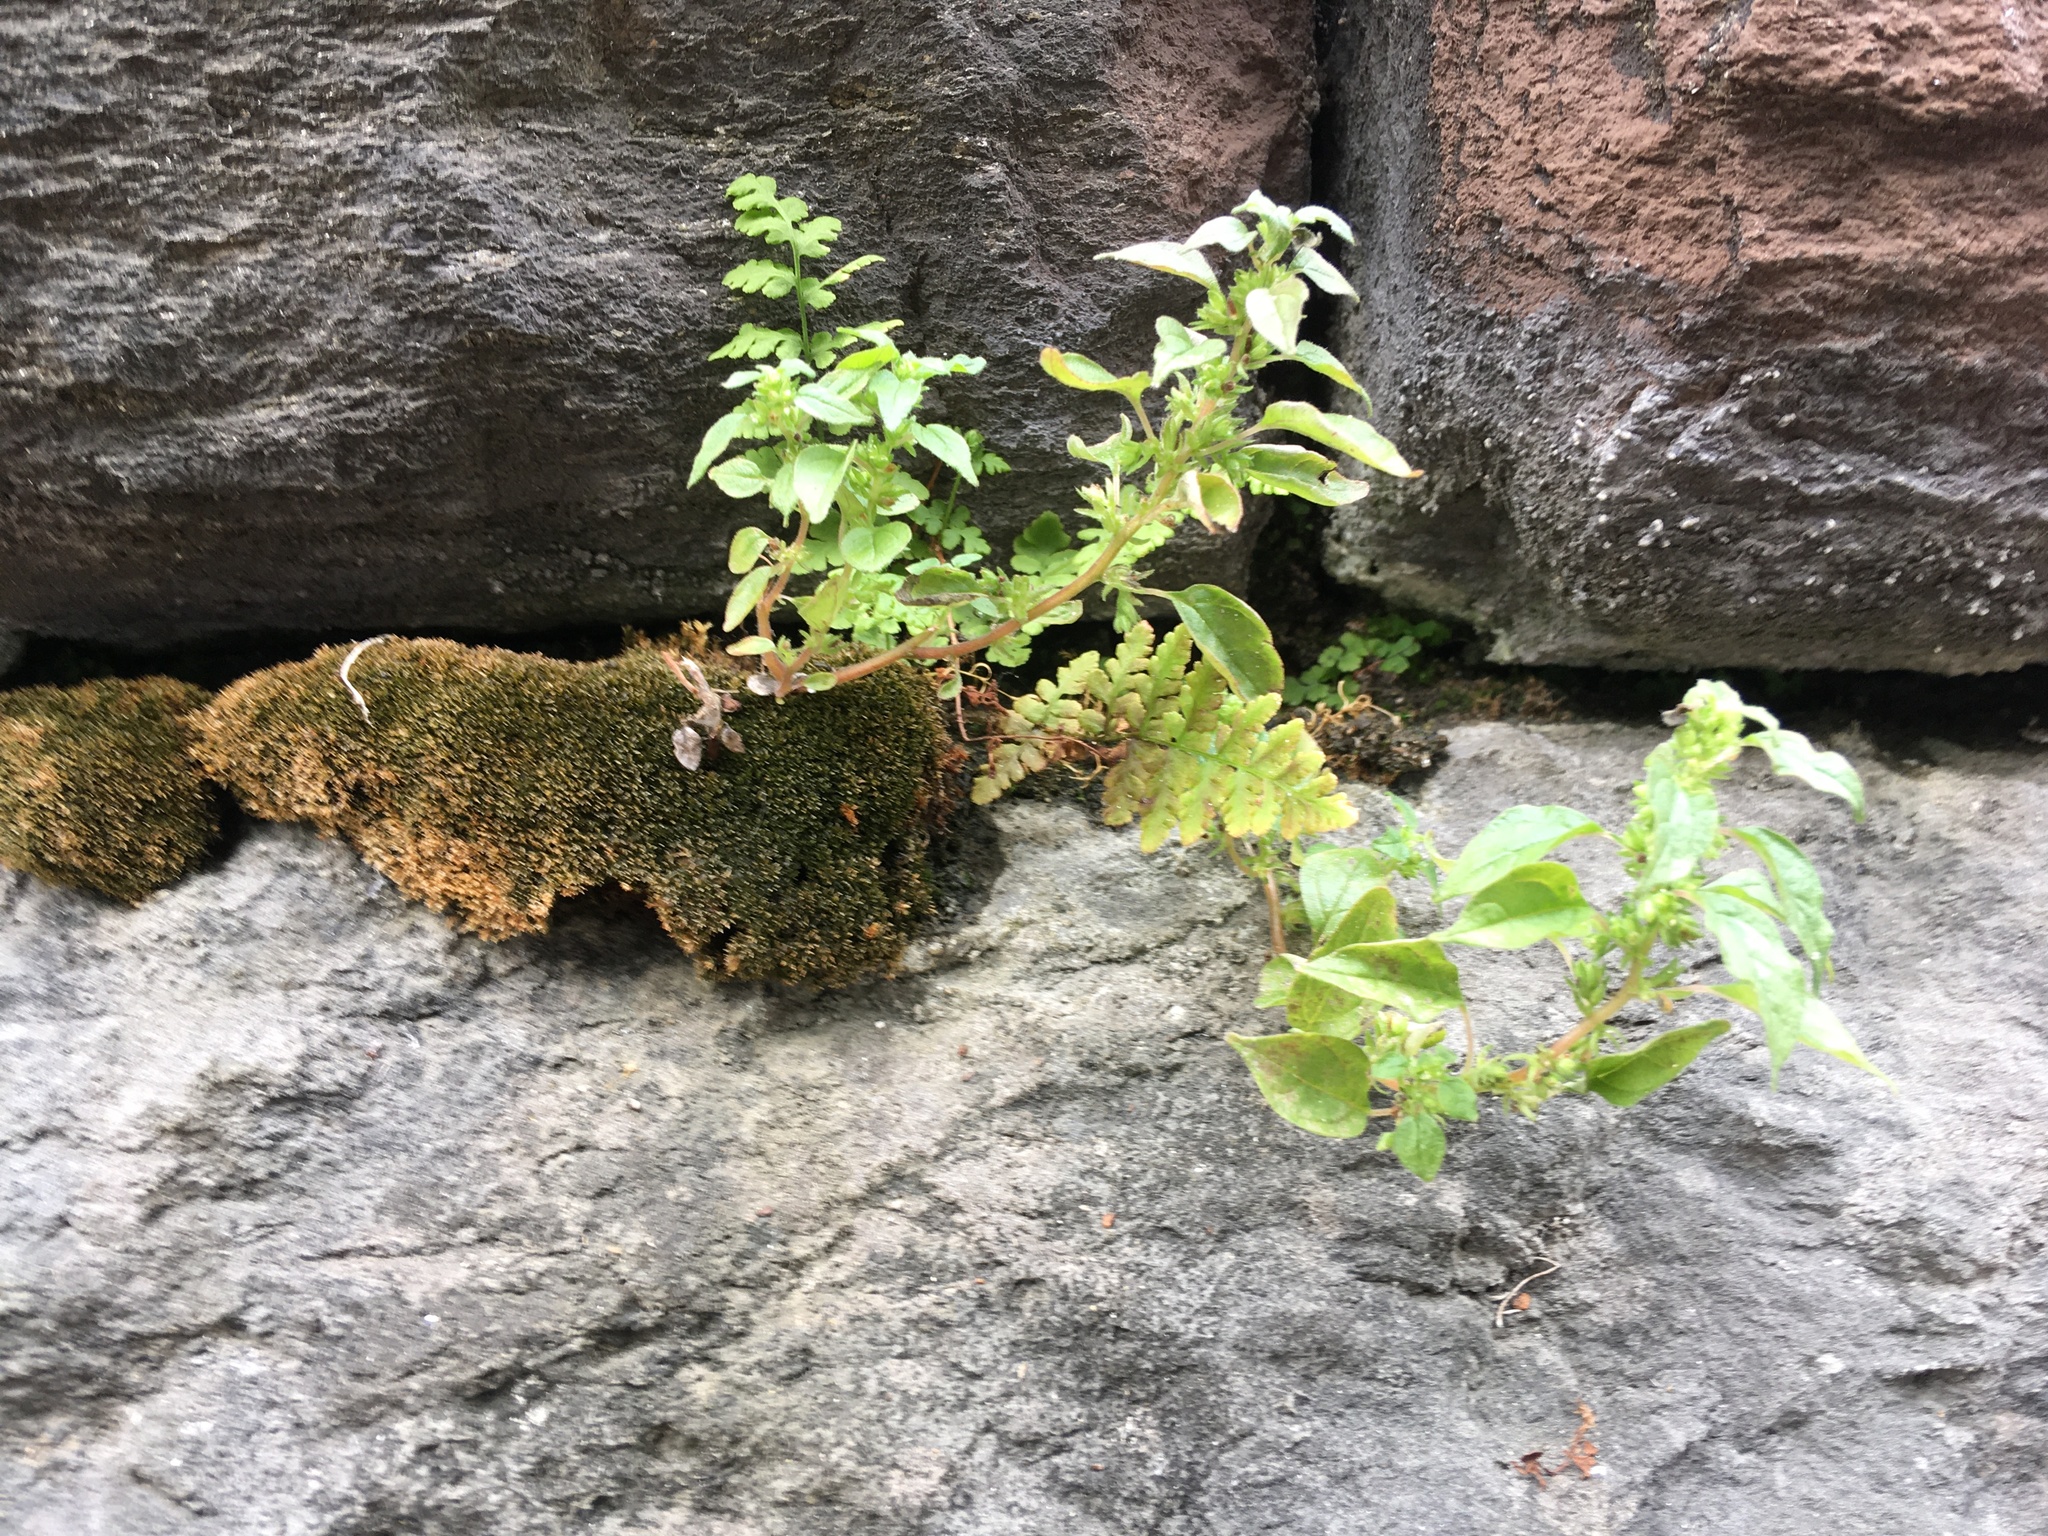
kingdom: Plantae
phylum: Tracheophyta
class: Magnoliopsida
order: Rosales
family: Urticaceae
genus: Parietaria
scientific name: Parietaria pensylvanica
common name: Pennsylvania pellitory
